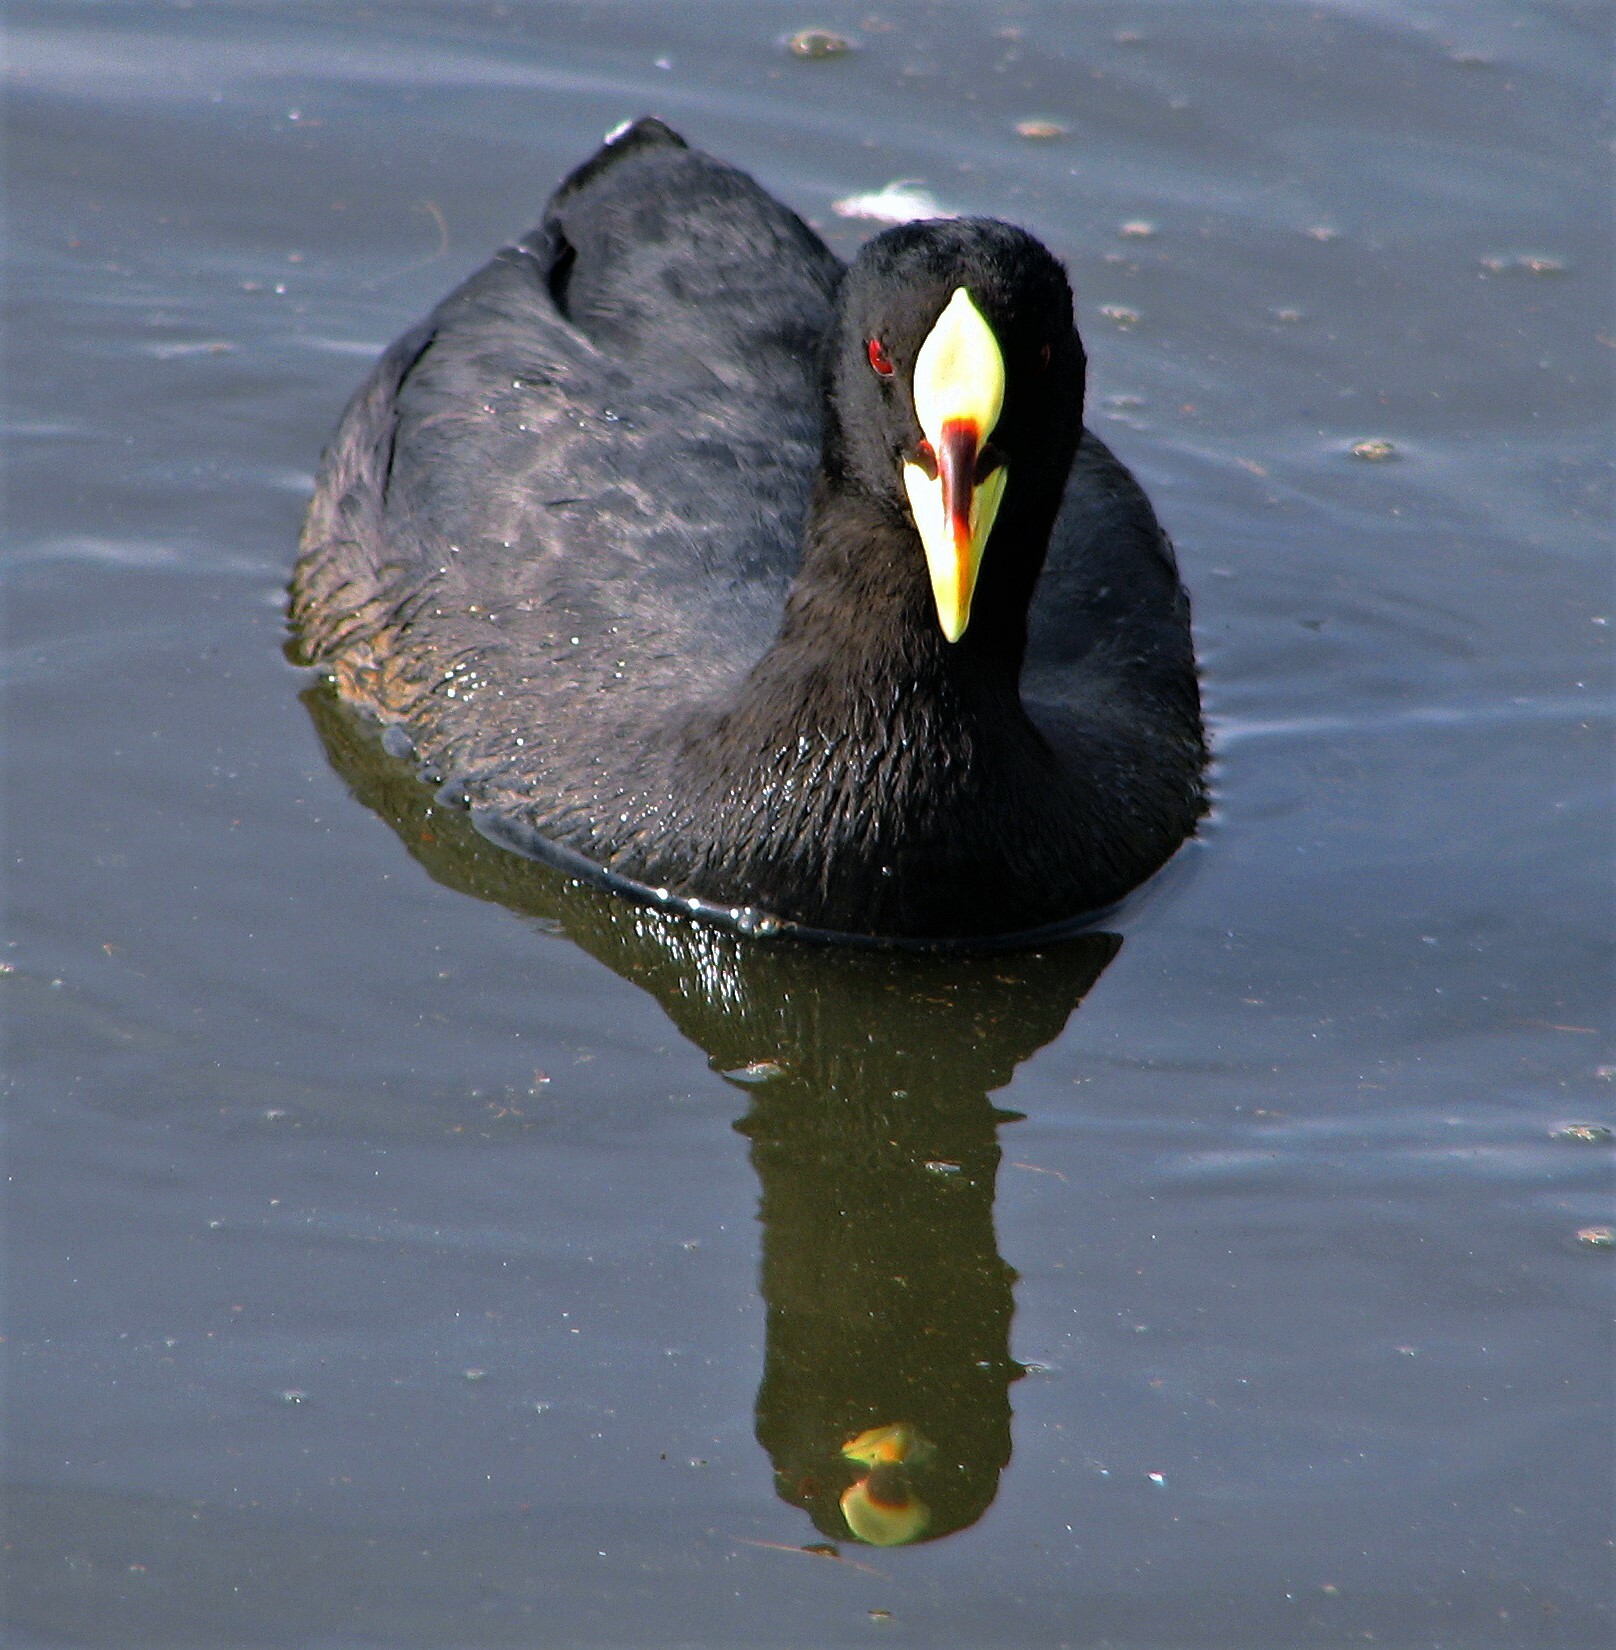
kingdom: Animalia
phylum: Chordata
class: Aves
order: Gruiformes
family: Rallidae
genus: Fulica
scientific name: Fulica armillata
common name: Red-gartered coot
